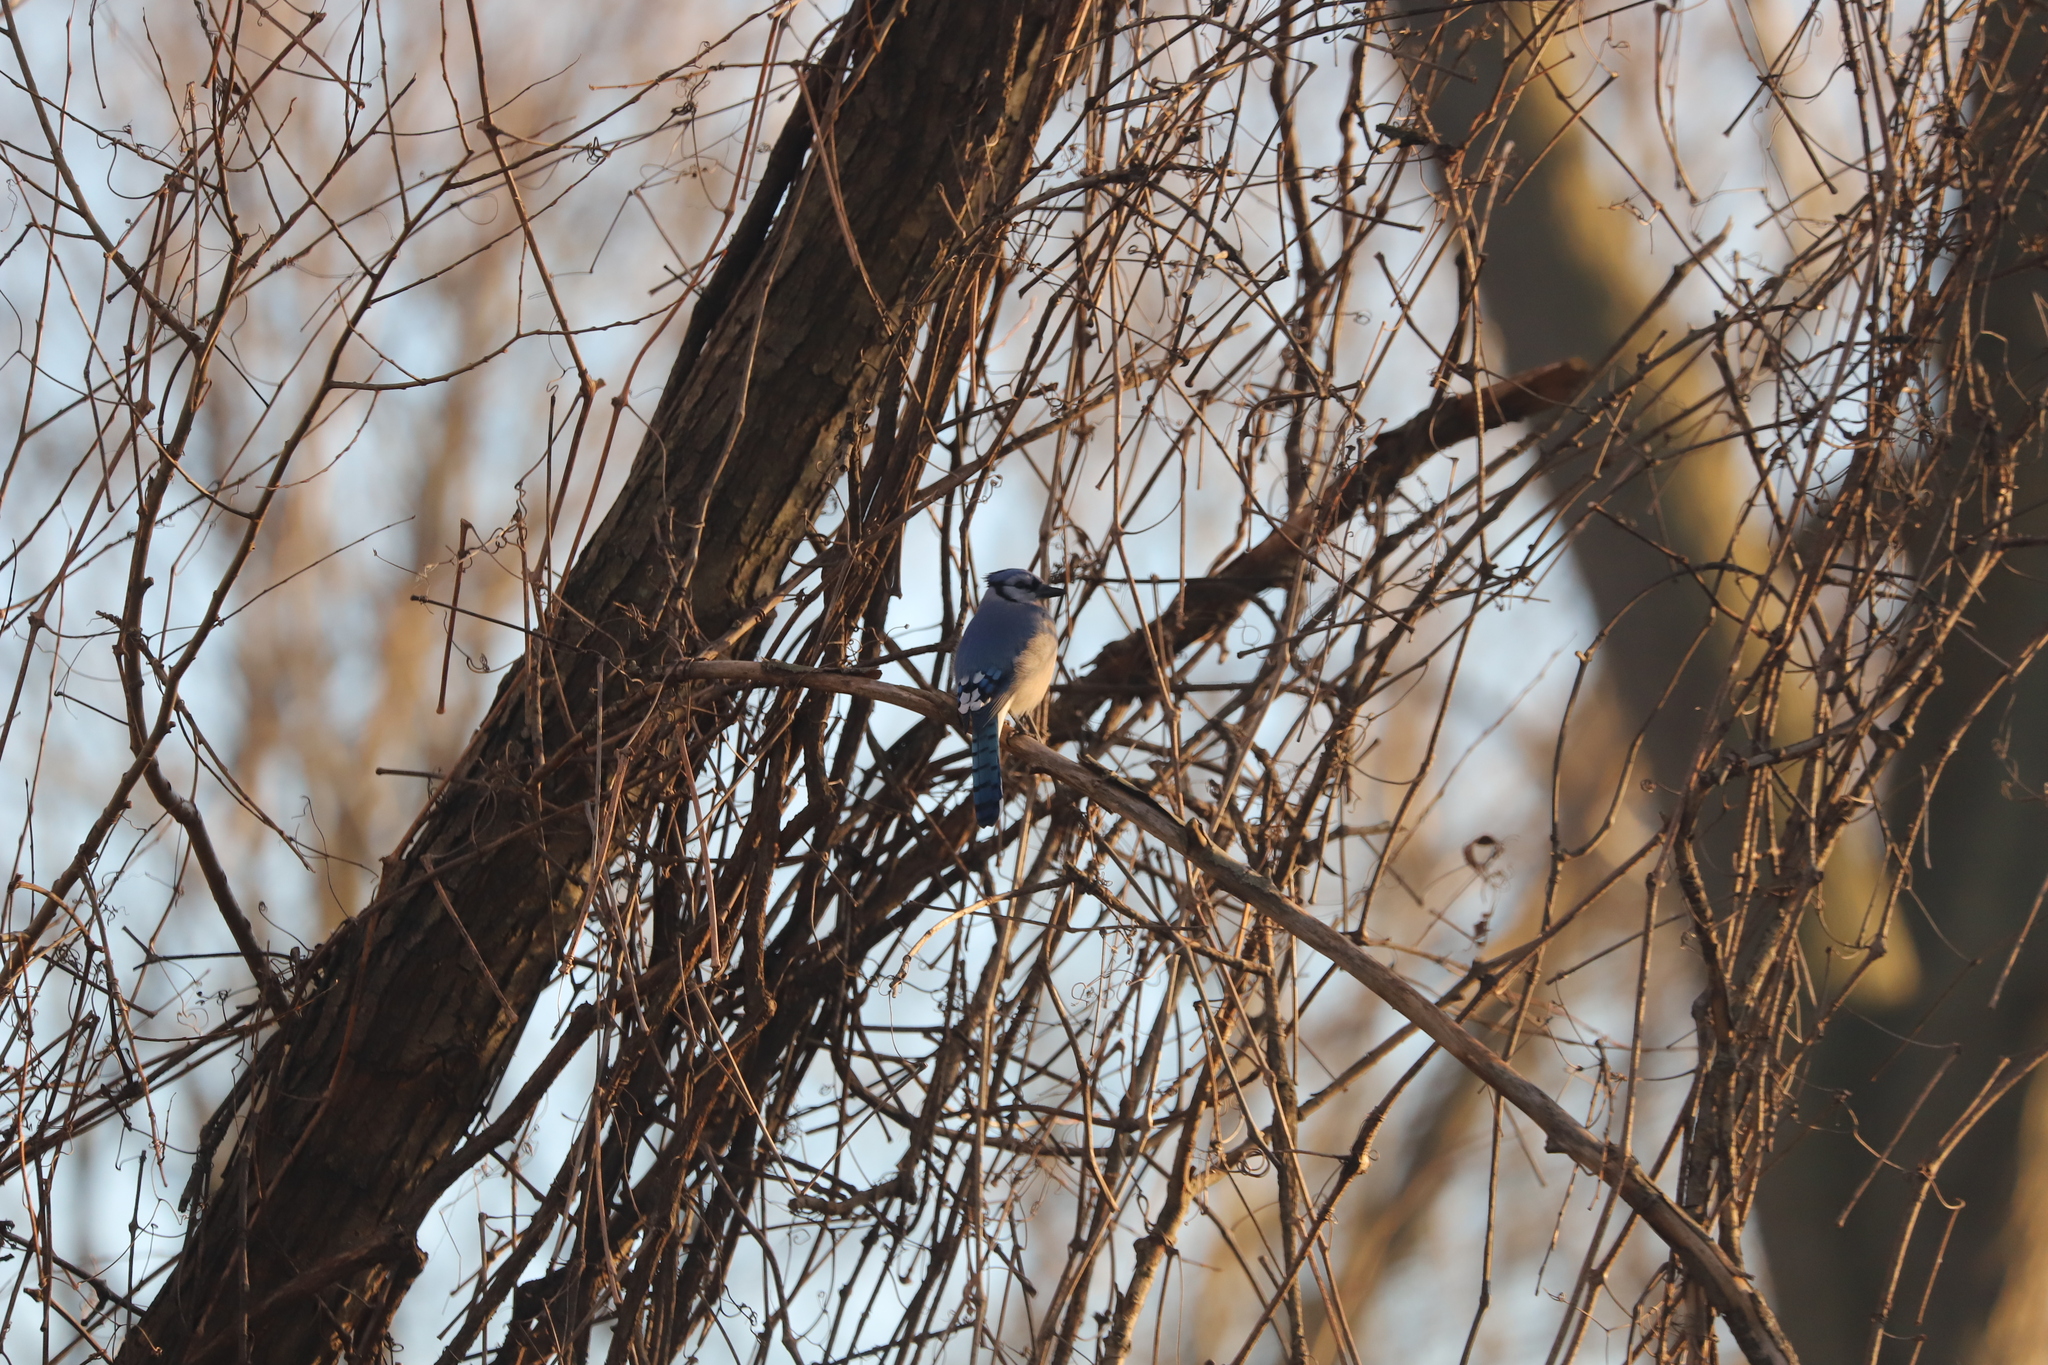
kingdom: Animalia
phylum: Chordata
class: Aves
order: Passeriformes
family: Corvidae
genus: Cyanocitta
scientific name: Cyanocitta cristata
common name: Blue jay
